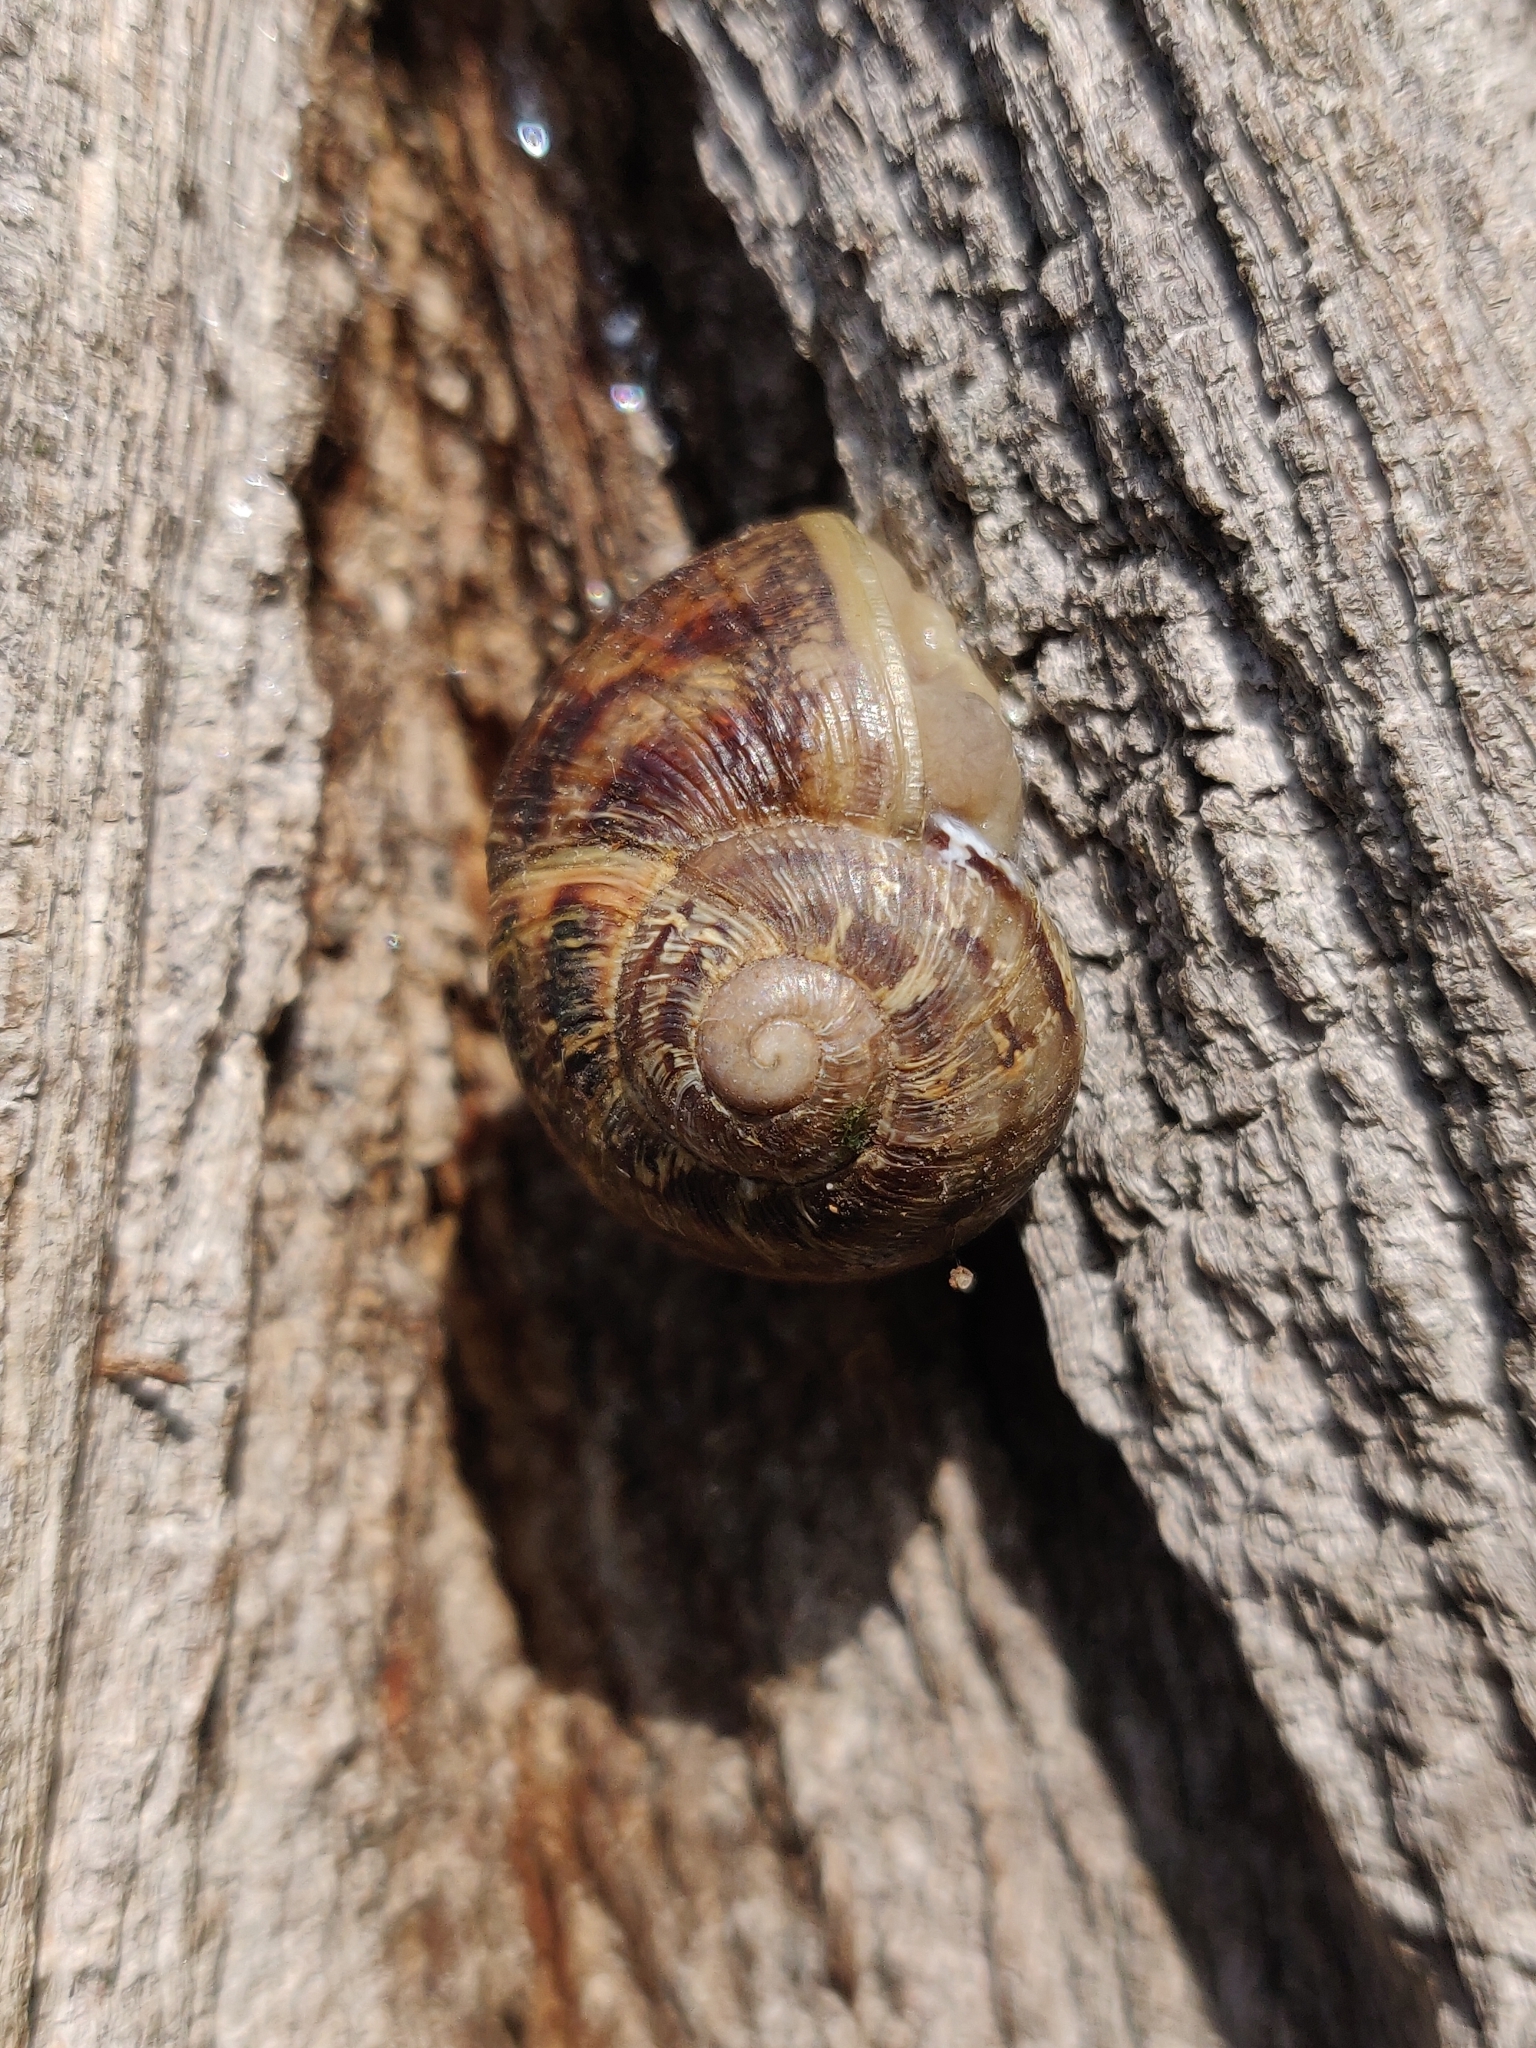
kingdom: Animalia
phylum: Mollusca
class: Gastropoda
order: Stylommatophora
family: Helicidae
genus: Cornu
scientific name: Cornu aspersum
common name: Brown garden snail
